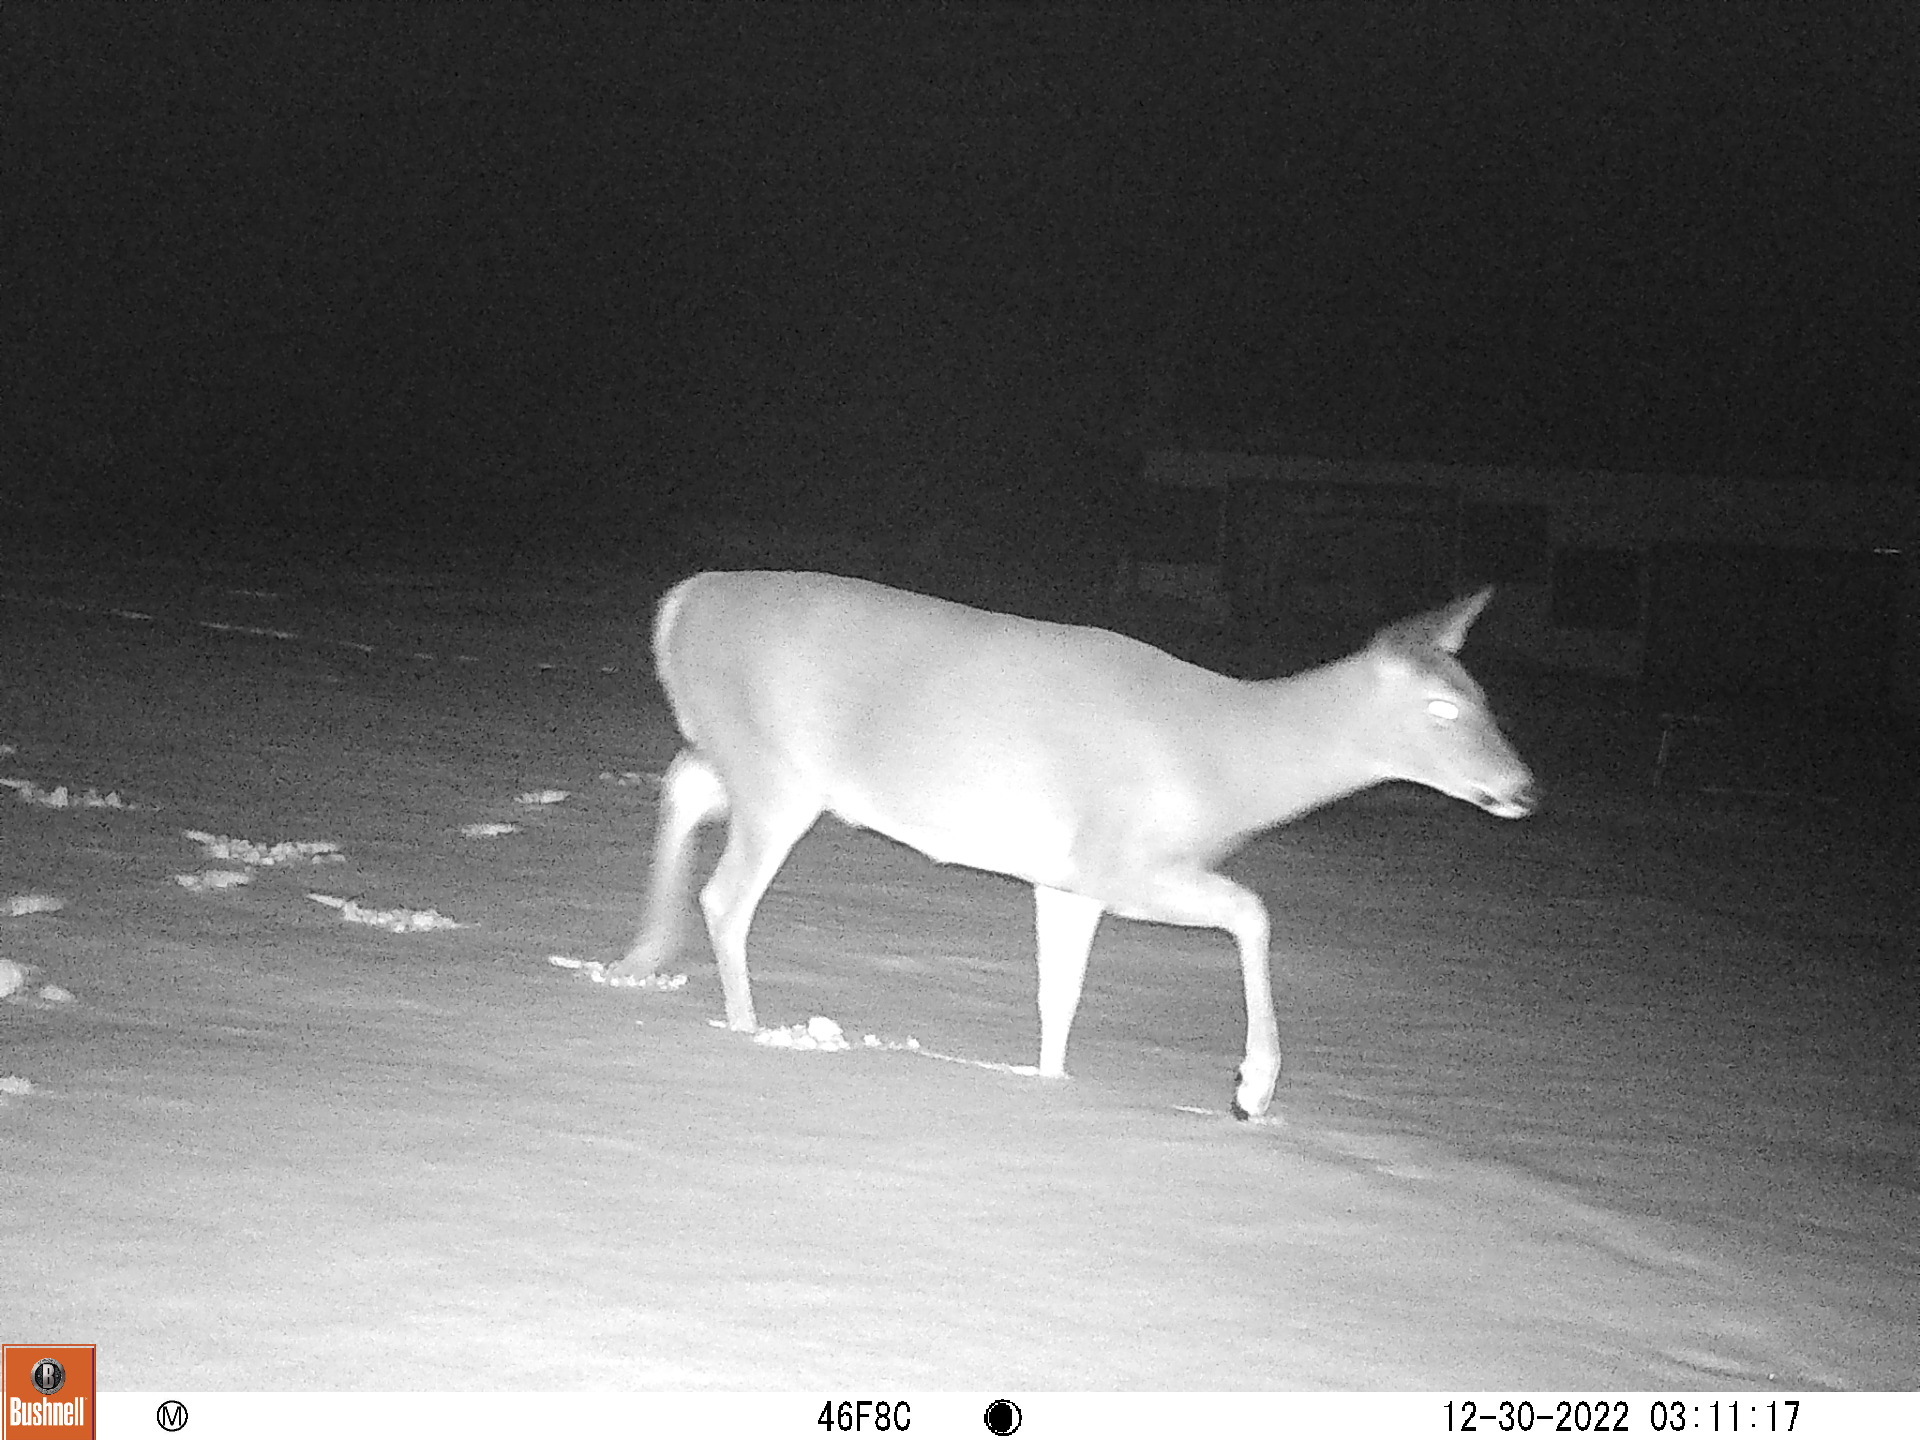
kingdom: Animalia
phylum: Chordata
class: Mammalia
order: Artiodactyla
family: Cervidae
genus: Odocoileus
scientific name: Odocoileus virginianus
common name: White-tailed deer
